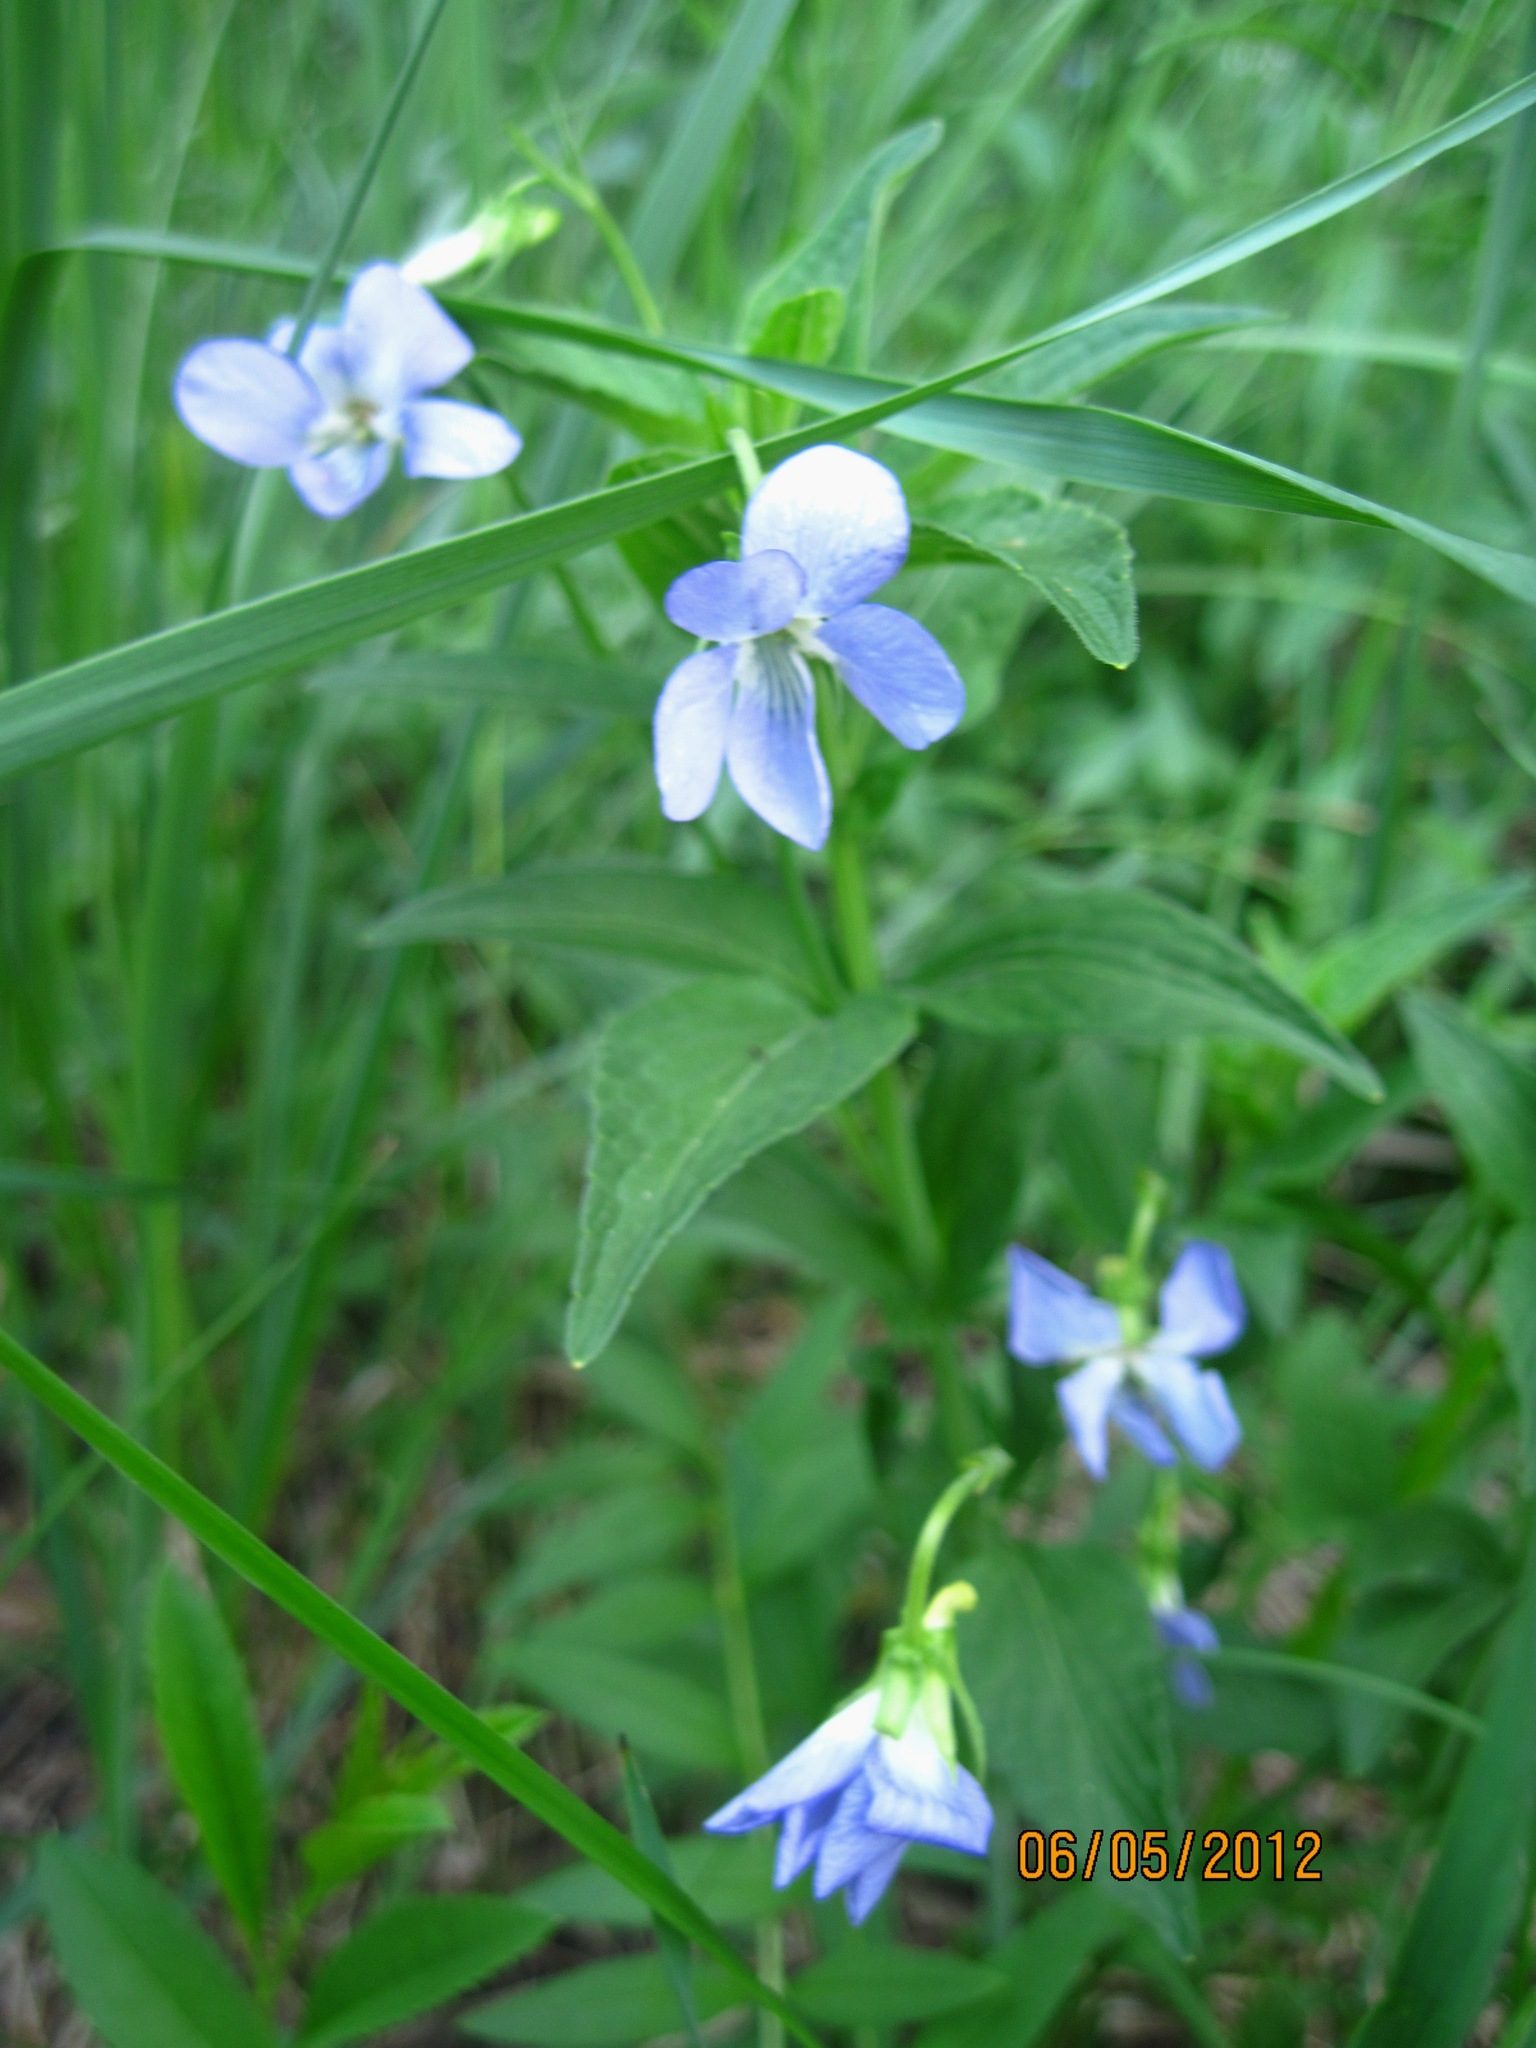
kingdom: Plantae
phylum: Tracheophyta
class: Magnoliopsida
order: Malpighiales
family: Violaceae
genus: Viola
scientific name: Viola elatior
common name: Tall violet
